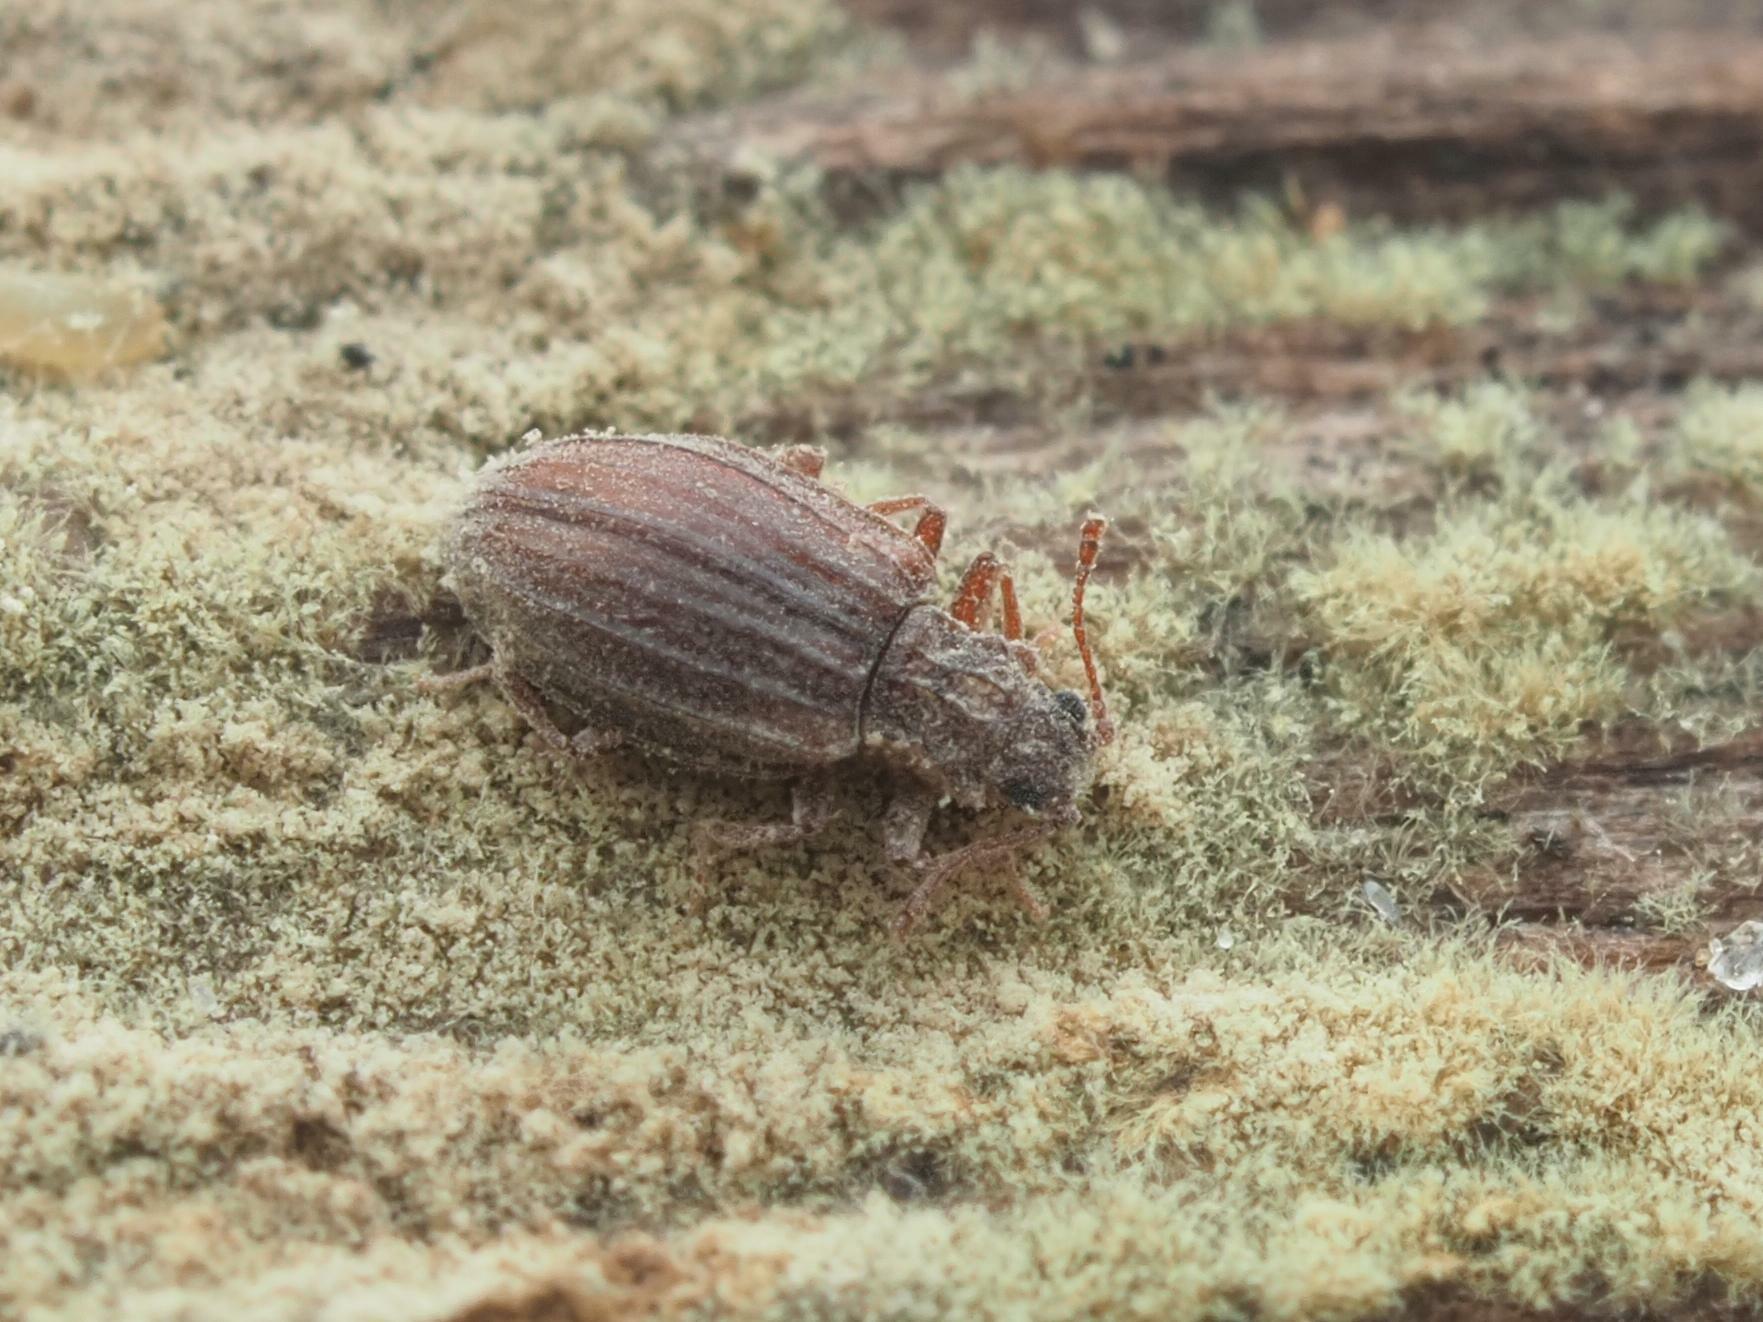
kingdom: Animalia
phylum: Arthropoda
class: Insecta
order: Coleoptera
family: Latridiidae
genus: Stephostethus
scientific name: Stephostethus alternans
